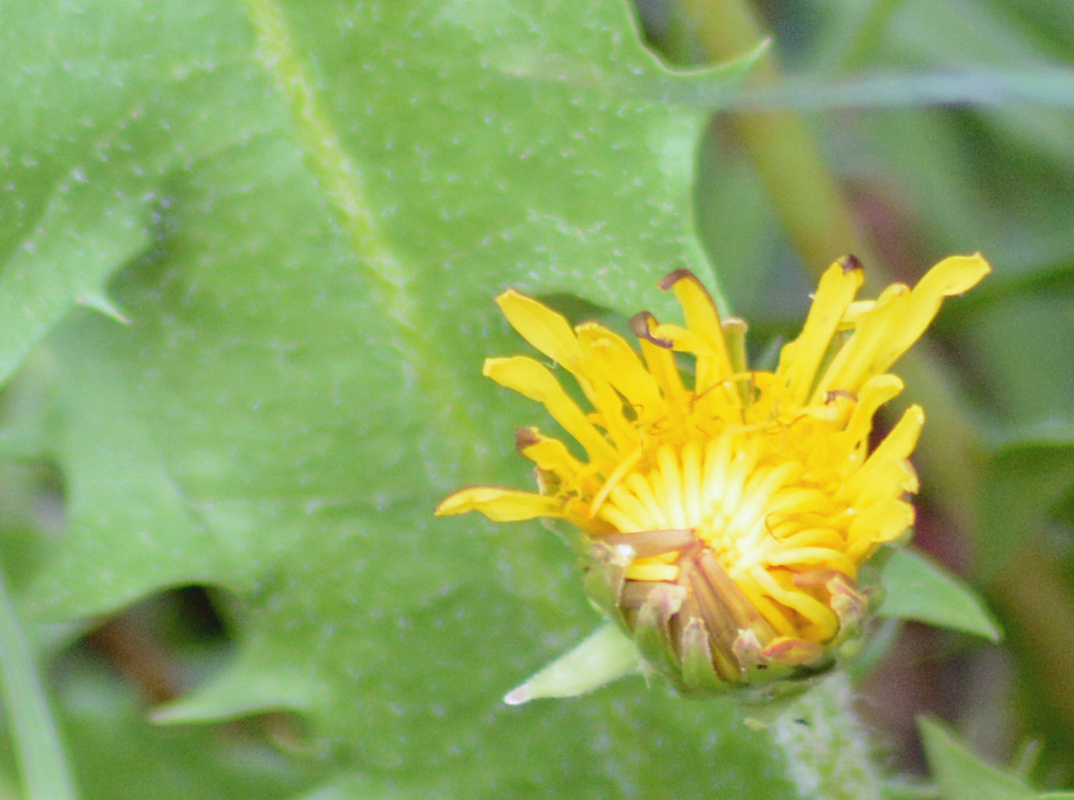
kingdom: Plantae
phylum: Tracheophyta
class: Magnoliopsida
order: Asterales
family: Asteraceae
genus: Taraxacum
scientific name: Taraxacum officinale
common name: Common dandelion
